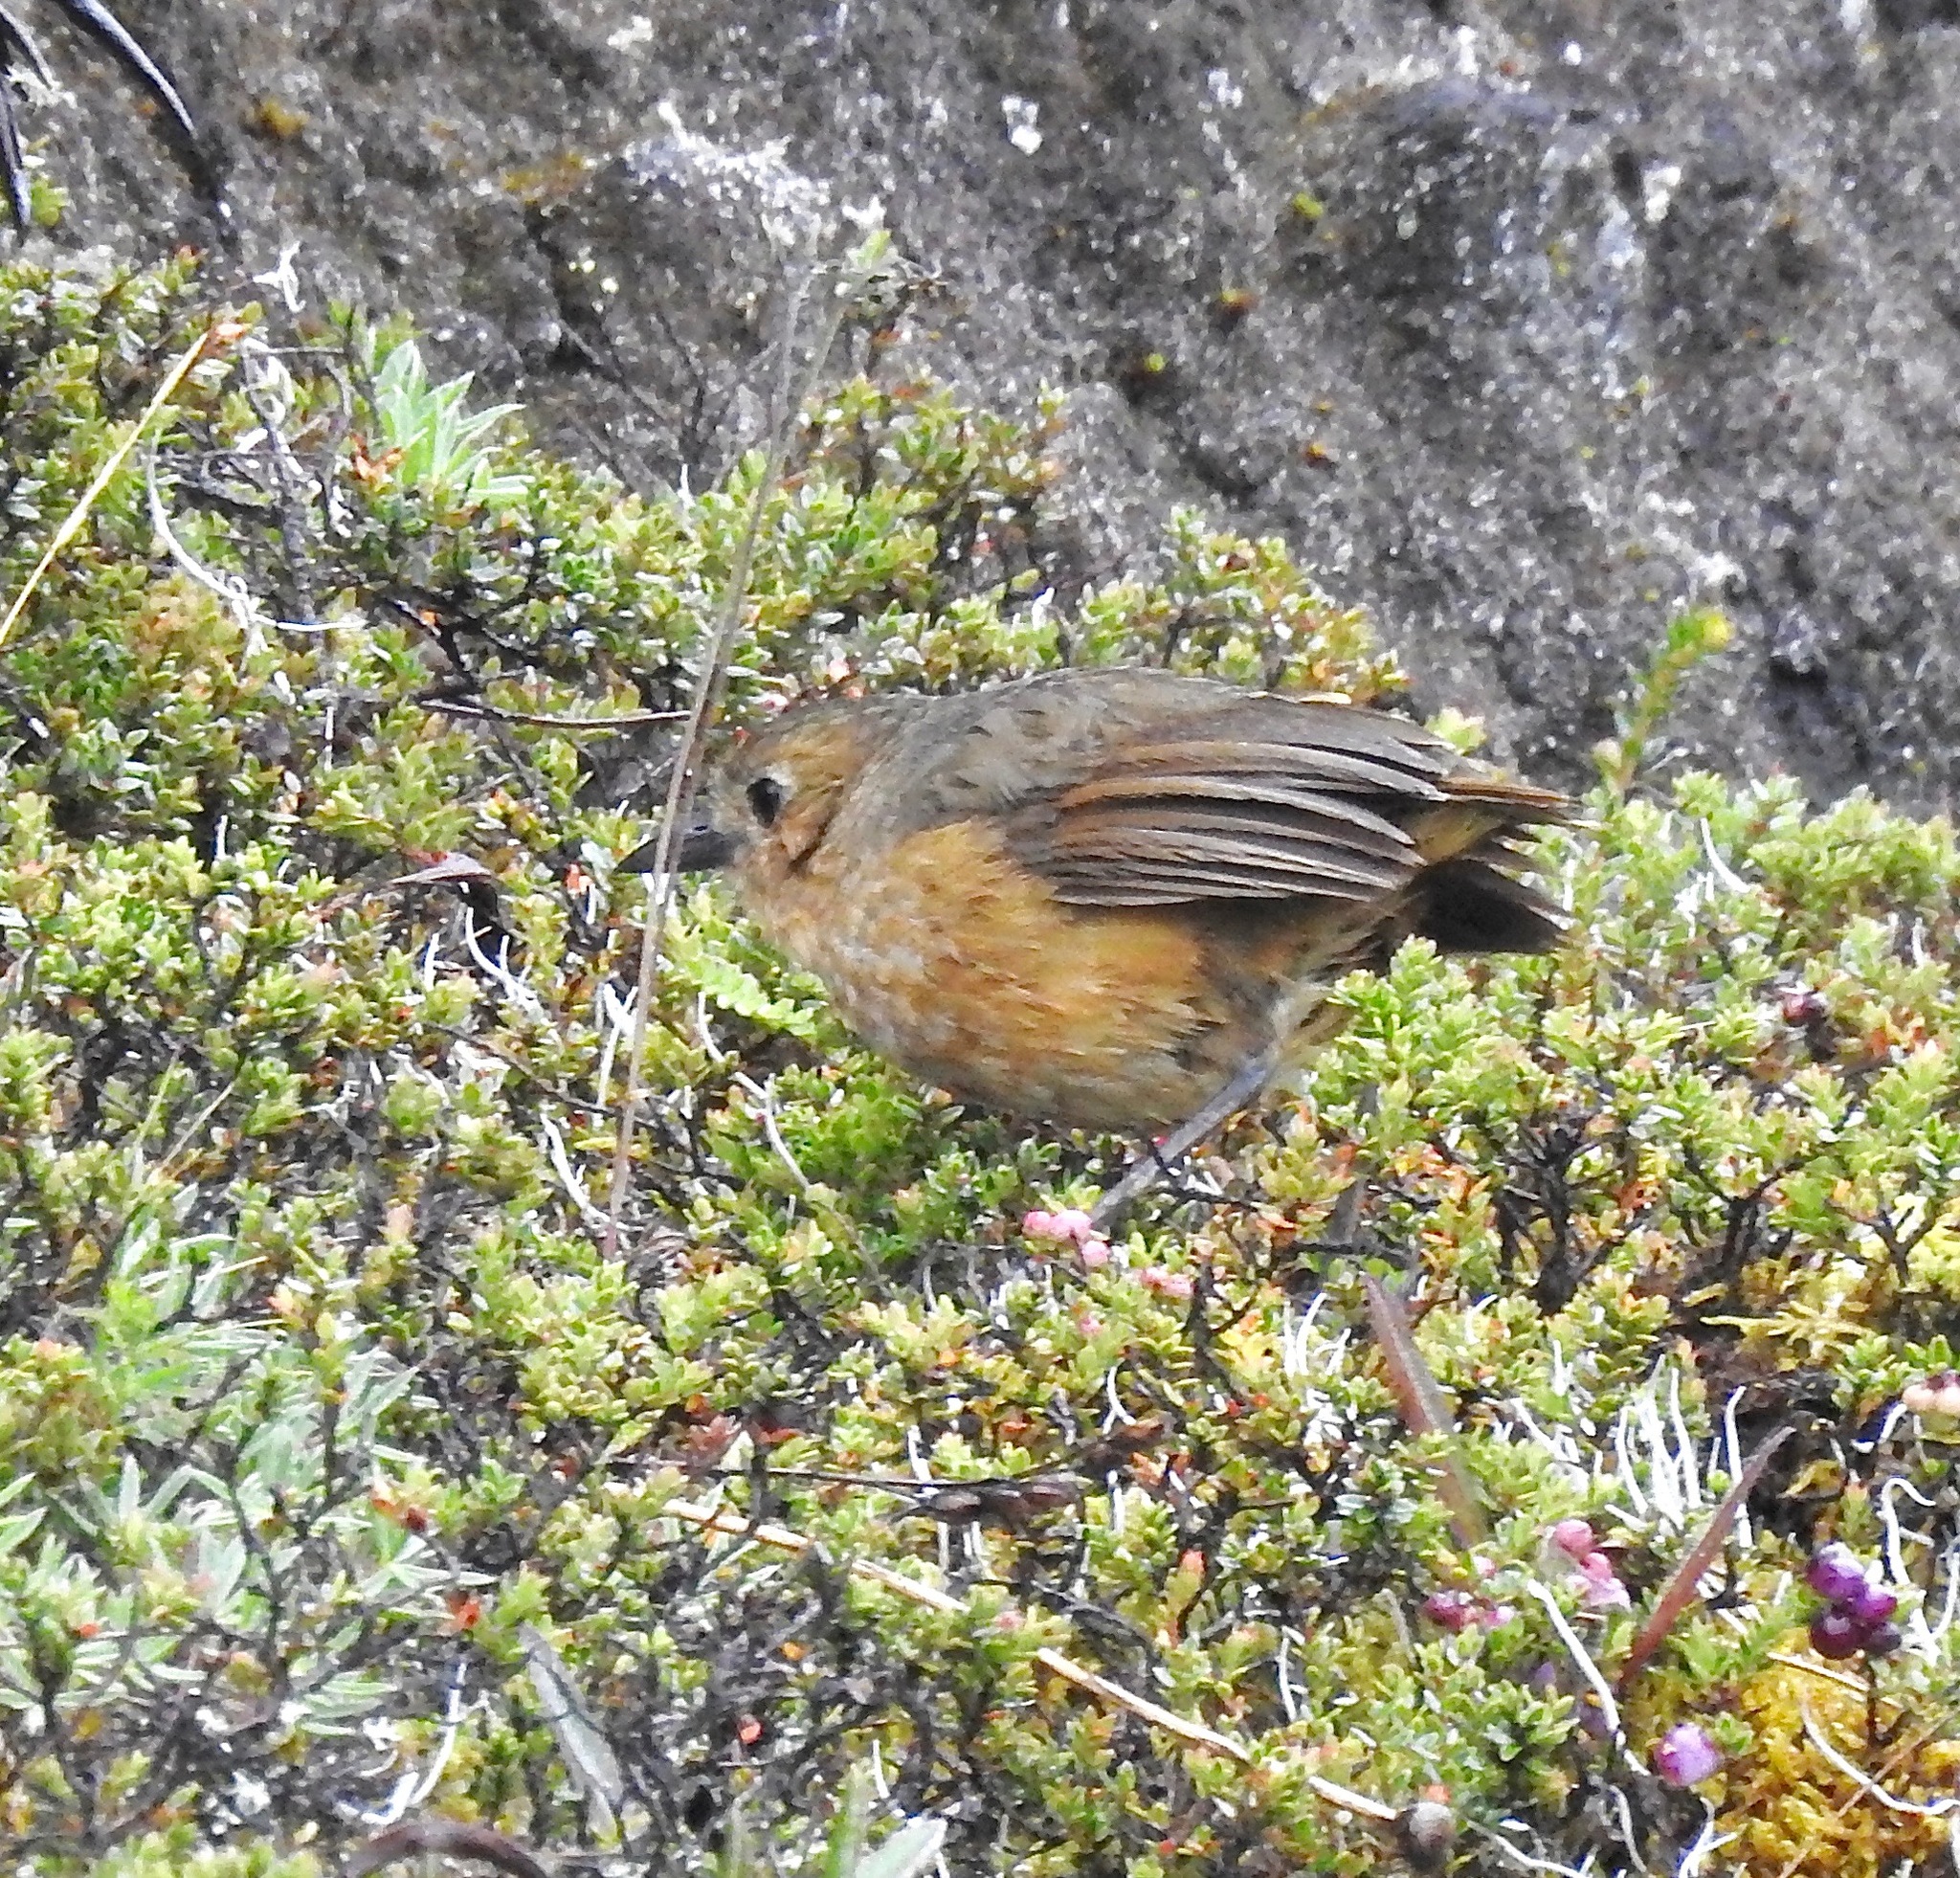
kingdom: Animalia
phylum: Chordata
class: Aves
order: Passeriformes
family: Grallariidae
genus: Grallaria
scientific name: Grallaria quitensis
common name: Tawny antpitta
